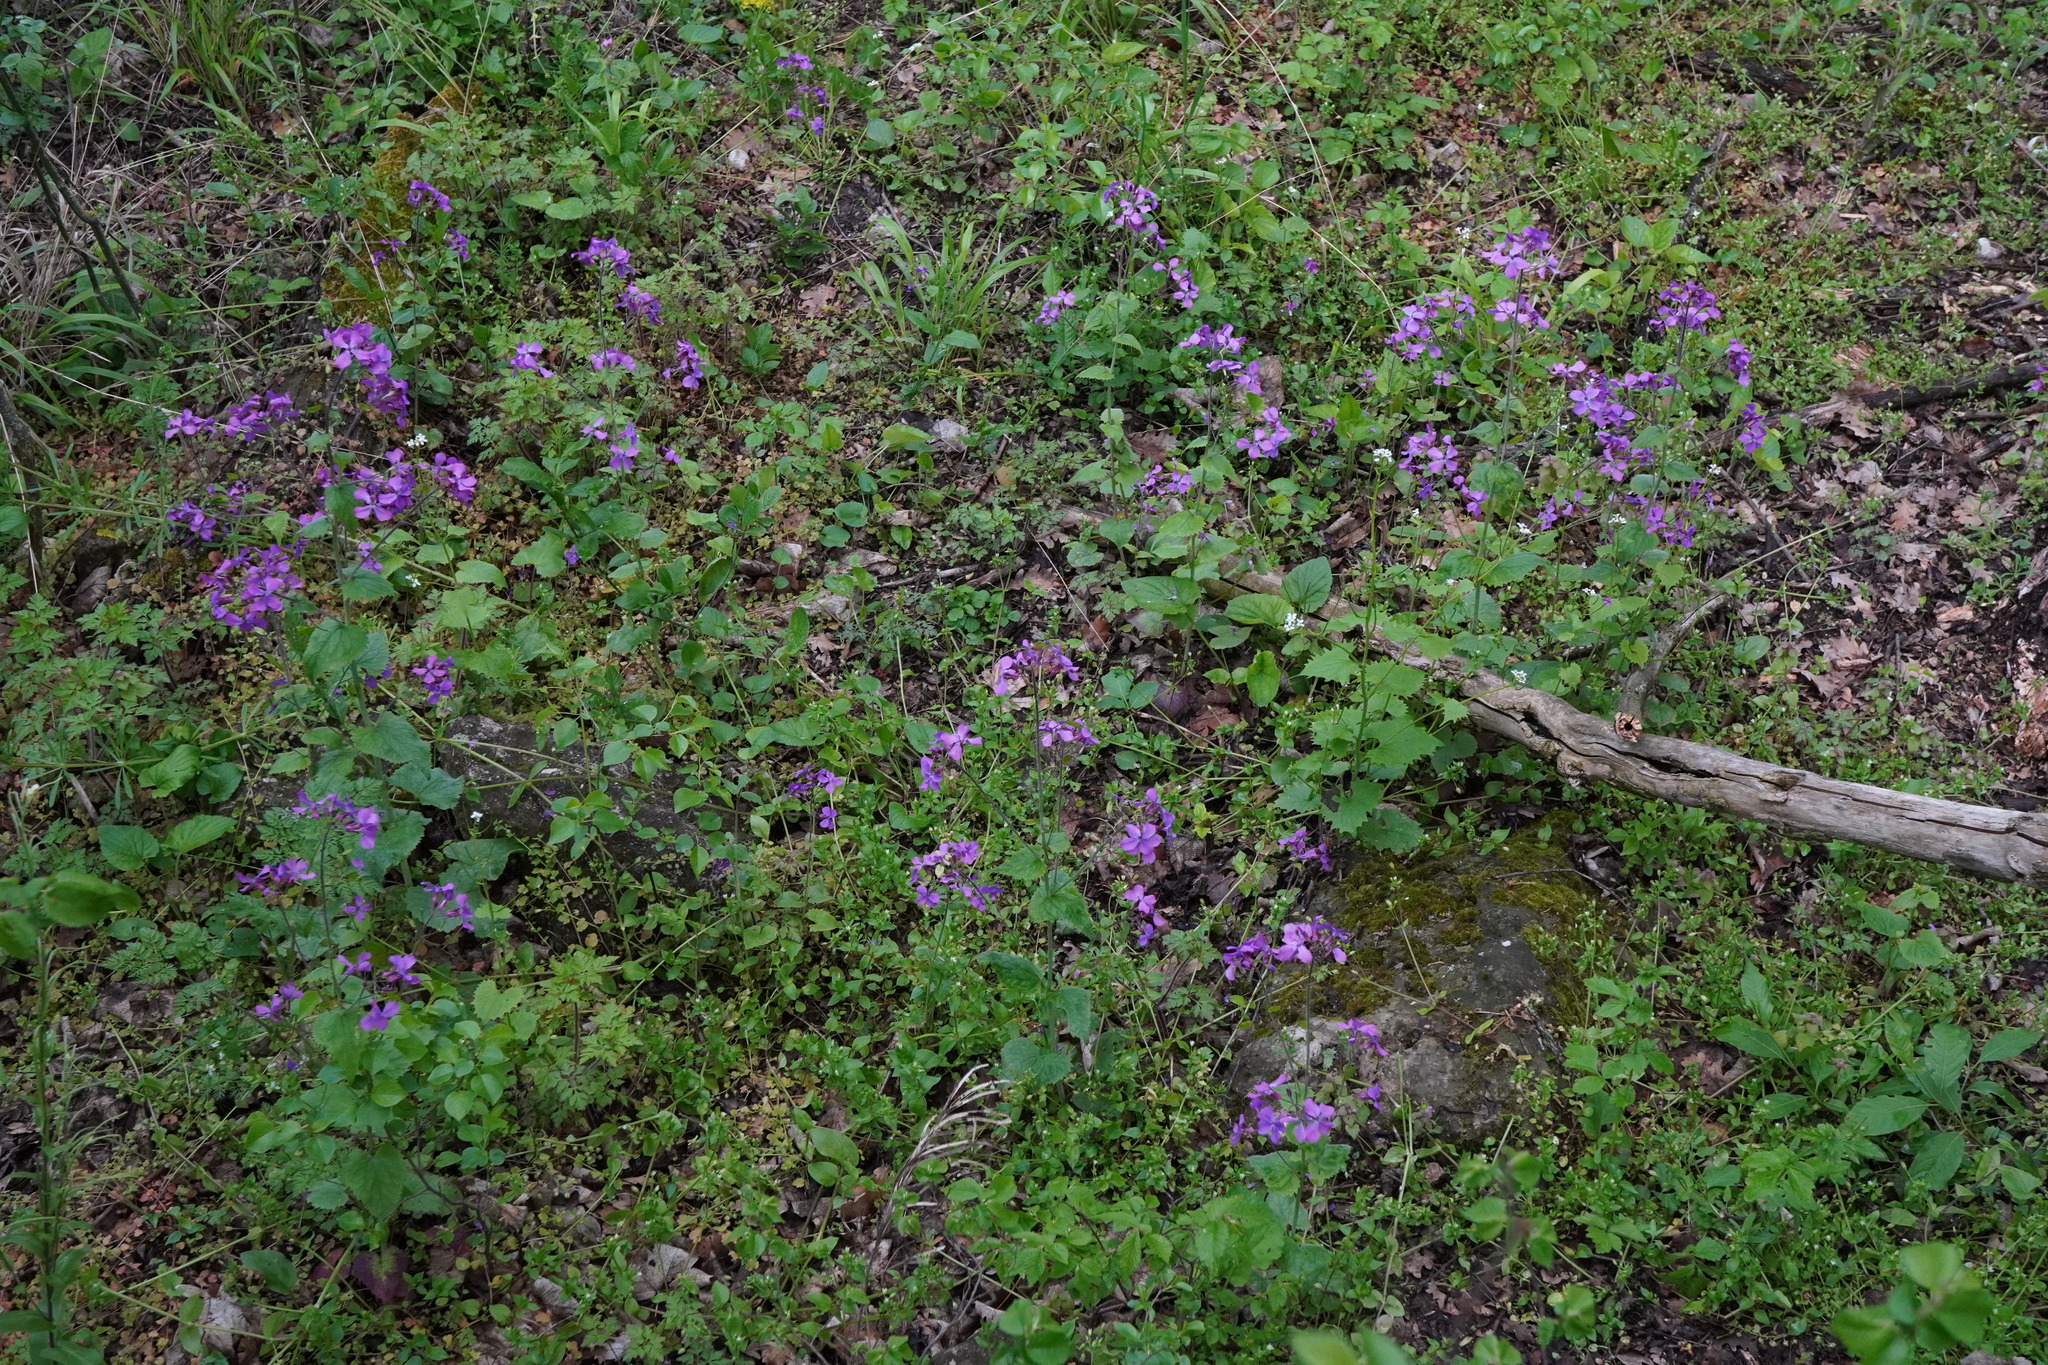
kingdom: Plantae
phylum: Tracheophyta
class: Magnoliopsida
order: Brassicales
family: Brassicaceae
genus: Lunaria
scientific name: Lunaria annua
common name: Honesty
